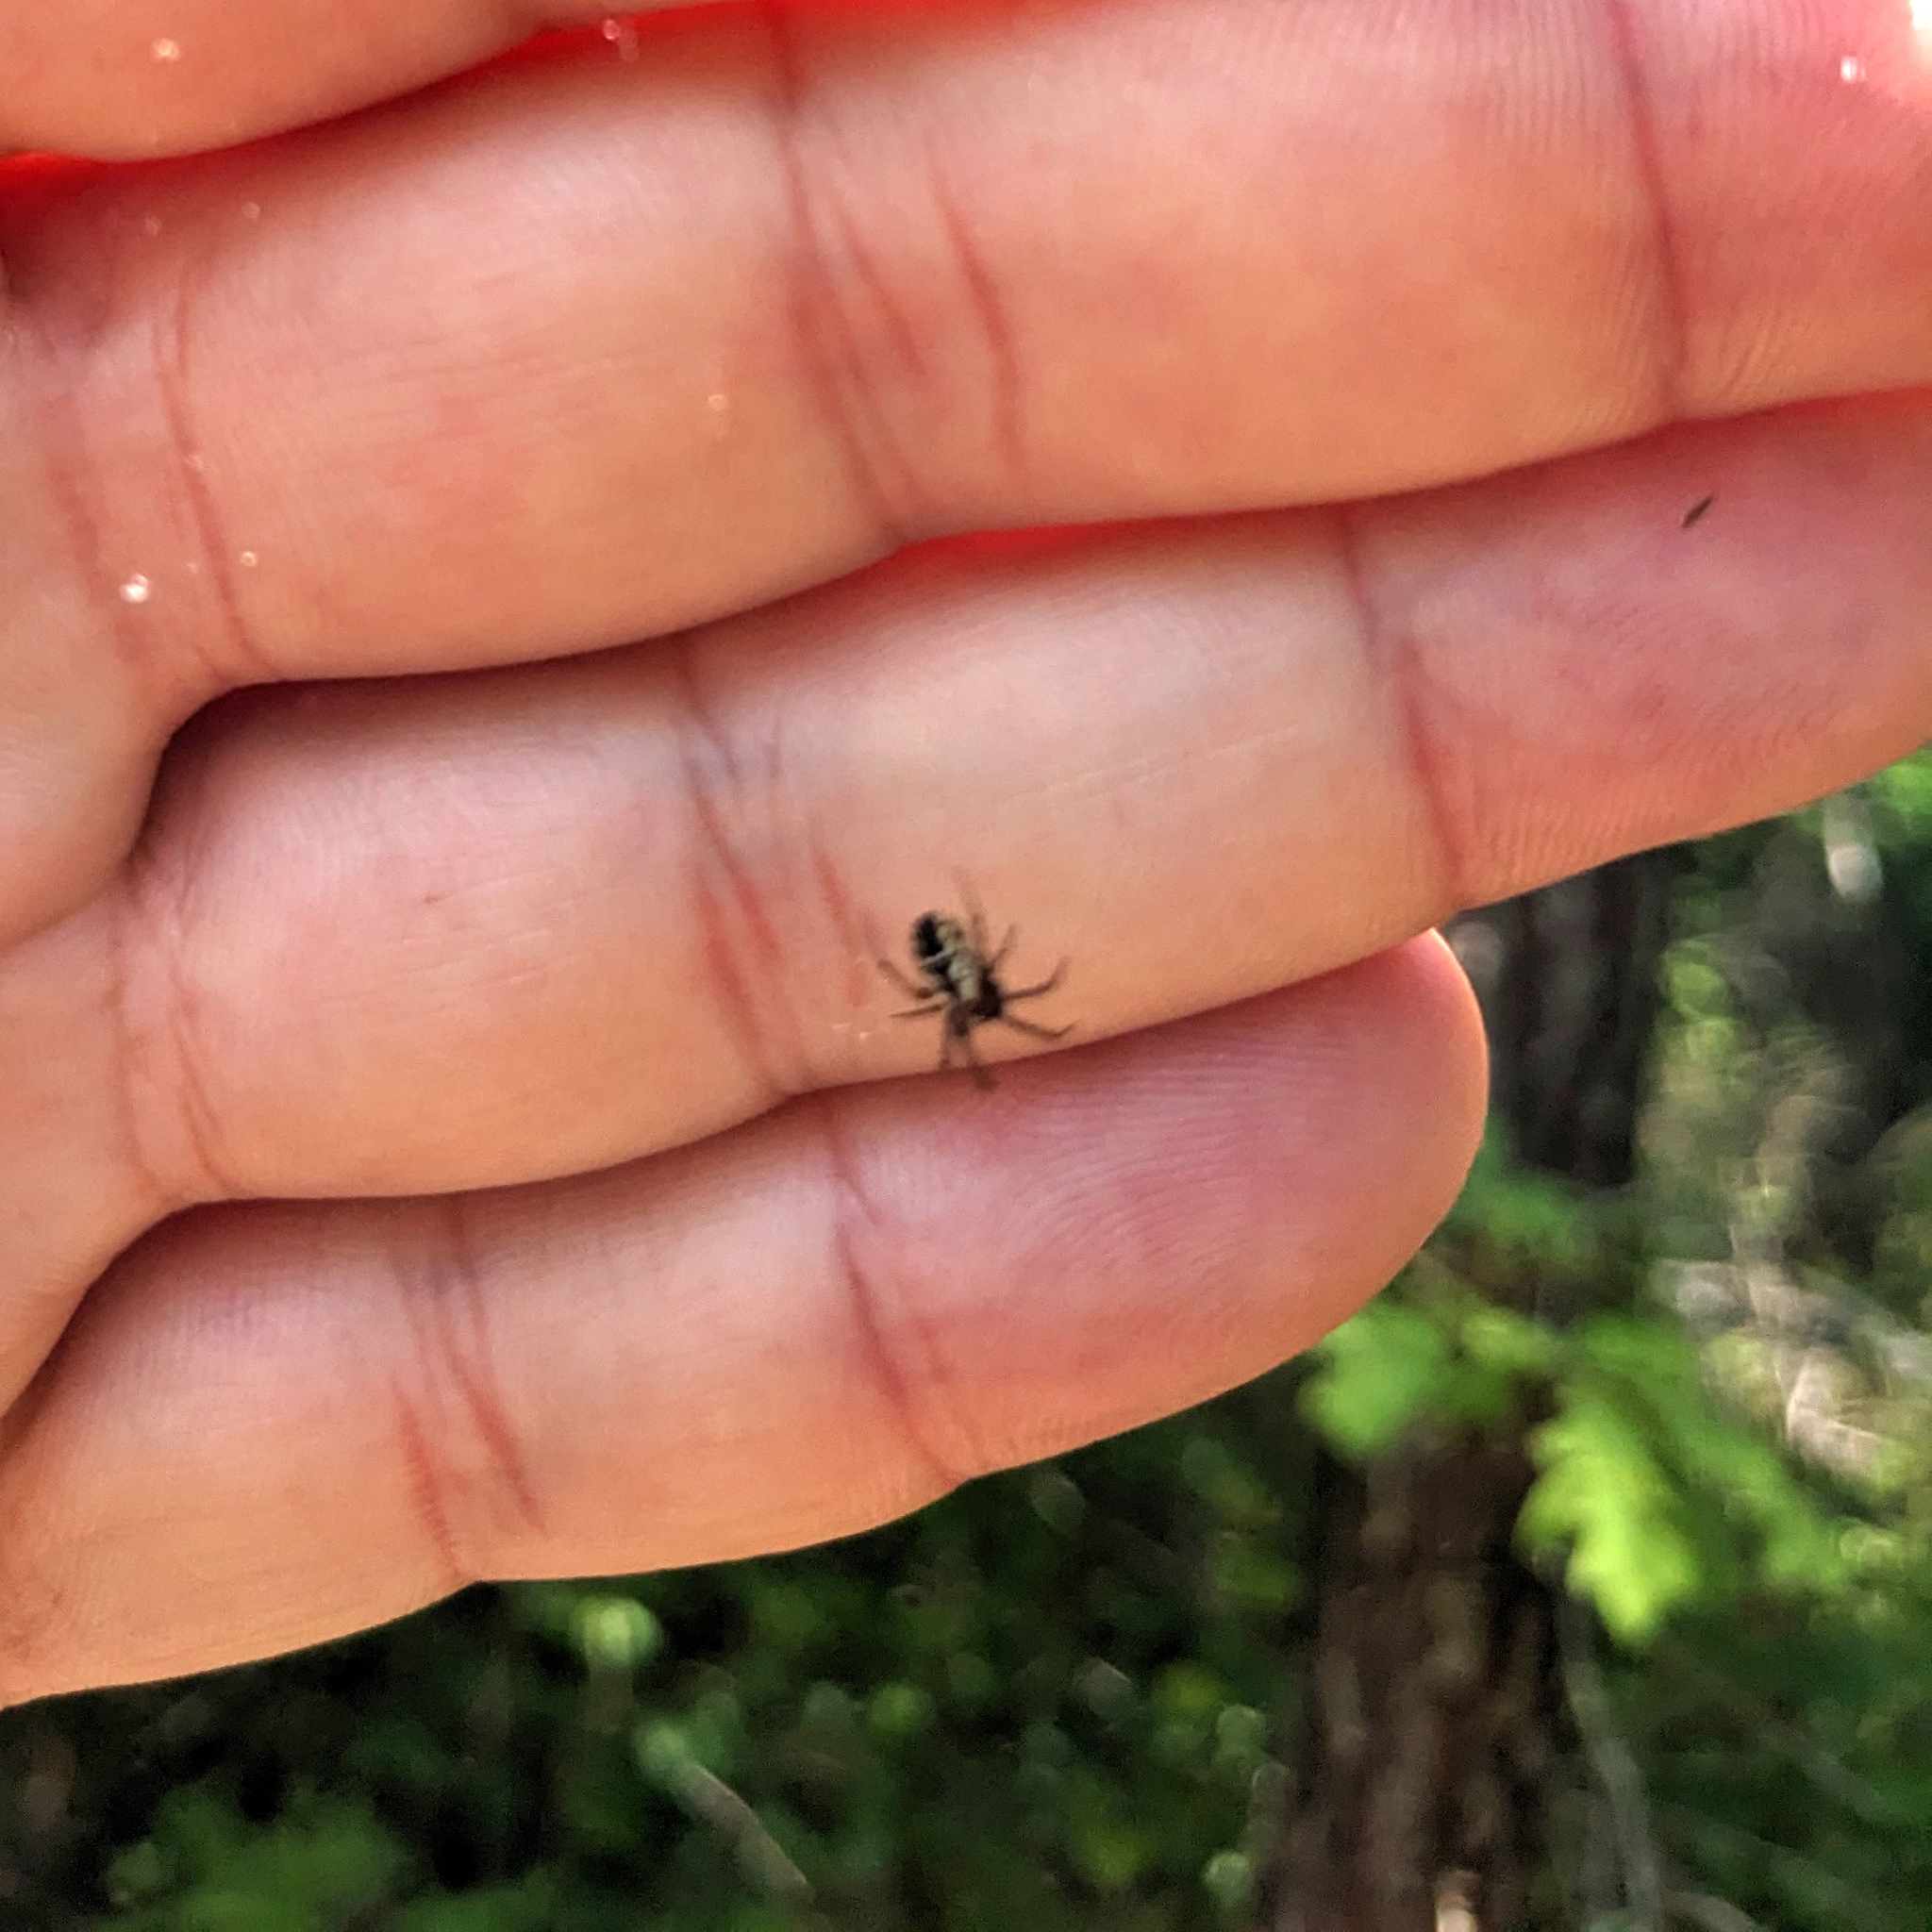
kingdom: Animalia
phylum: Arthropoda
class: Arachnida
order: Araneae
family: Araneidae
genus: Mangora
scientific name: Mangora placida
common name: Tuft-legged orbweaver
